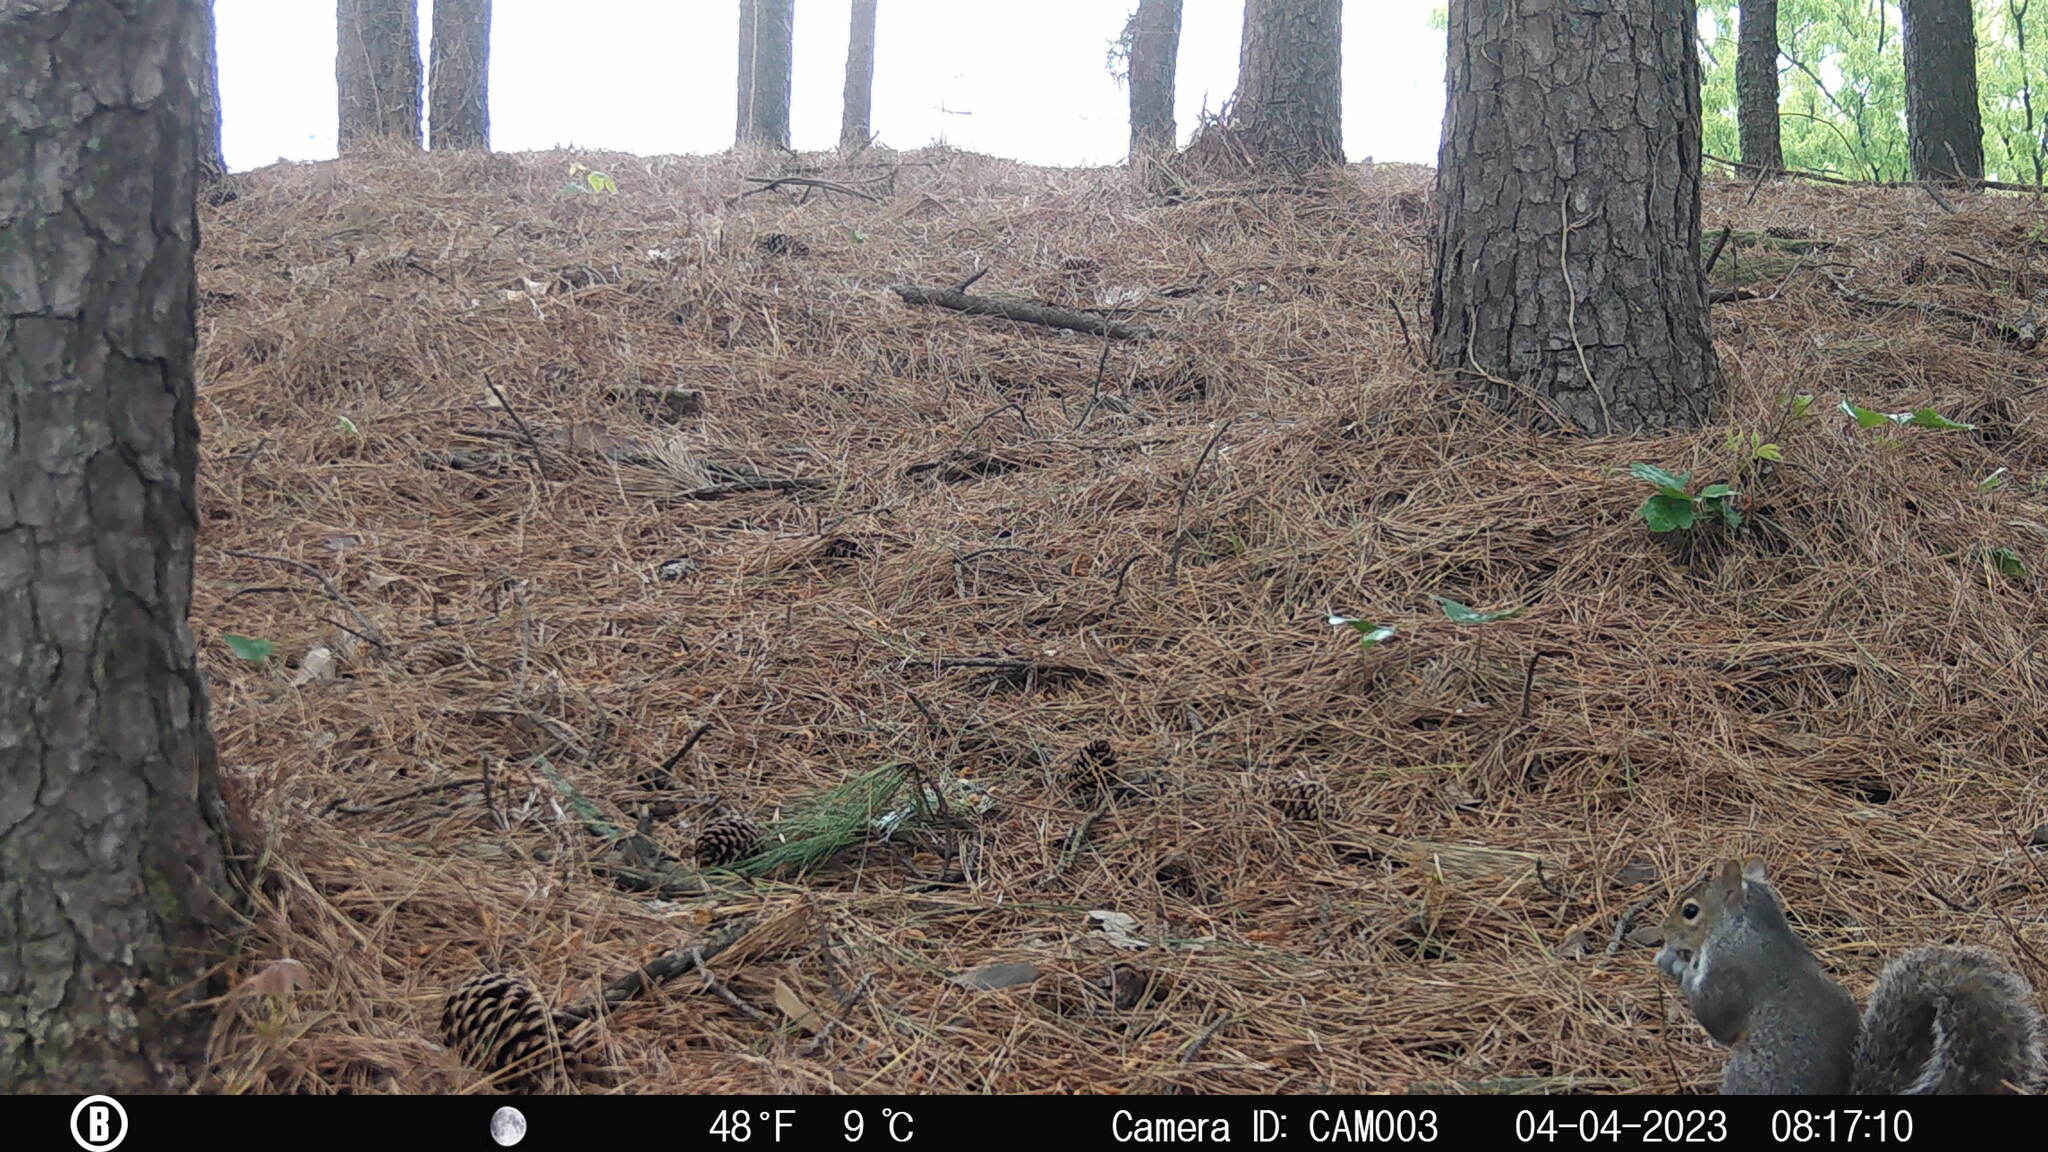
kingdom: Animalia
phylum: Chordata
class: Mammalia
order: Rodentia
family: Sciuridae
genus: Sciurus
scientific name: Sciurus carolinensis
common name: Eastern gray squirrel
